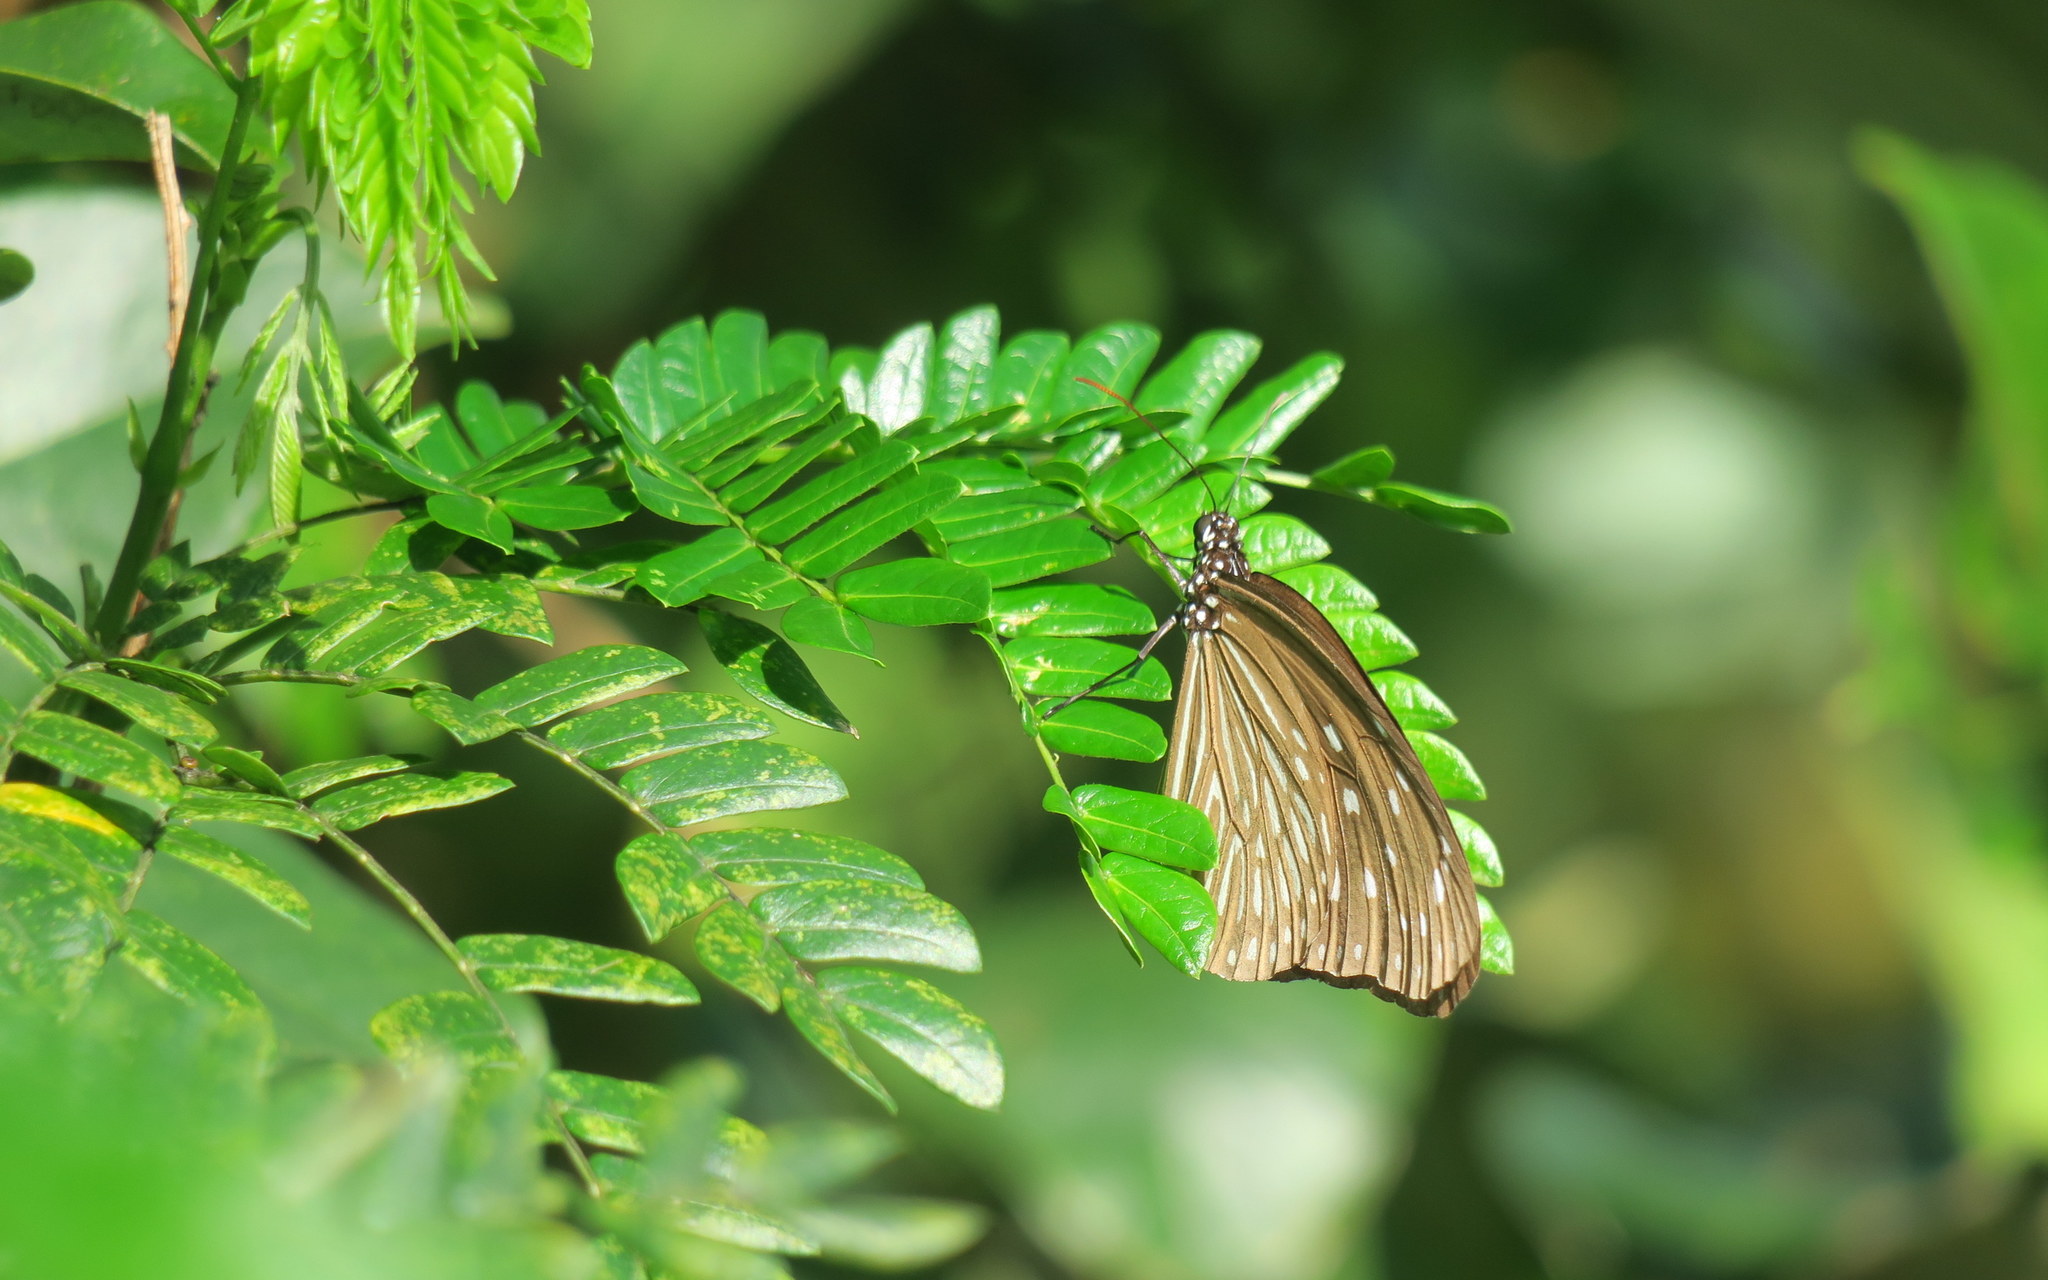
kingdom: Animalia
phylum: Arthropoda
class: Insecta
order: Lepidoptera
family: Nymphalidae
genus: Euploea
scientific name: Euploea mulciber
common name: Striped blue crow butterfly
